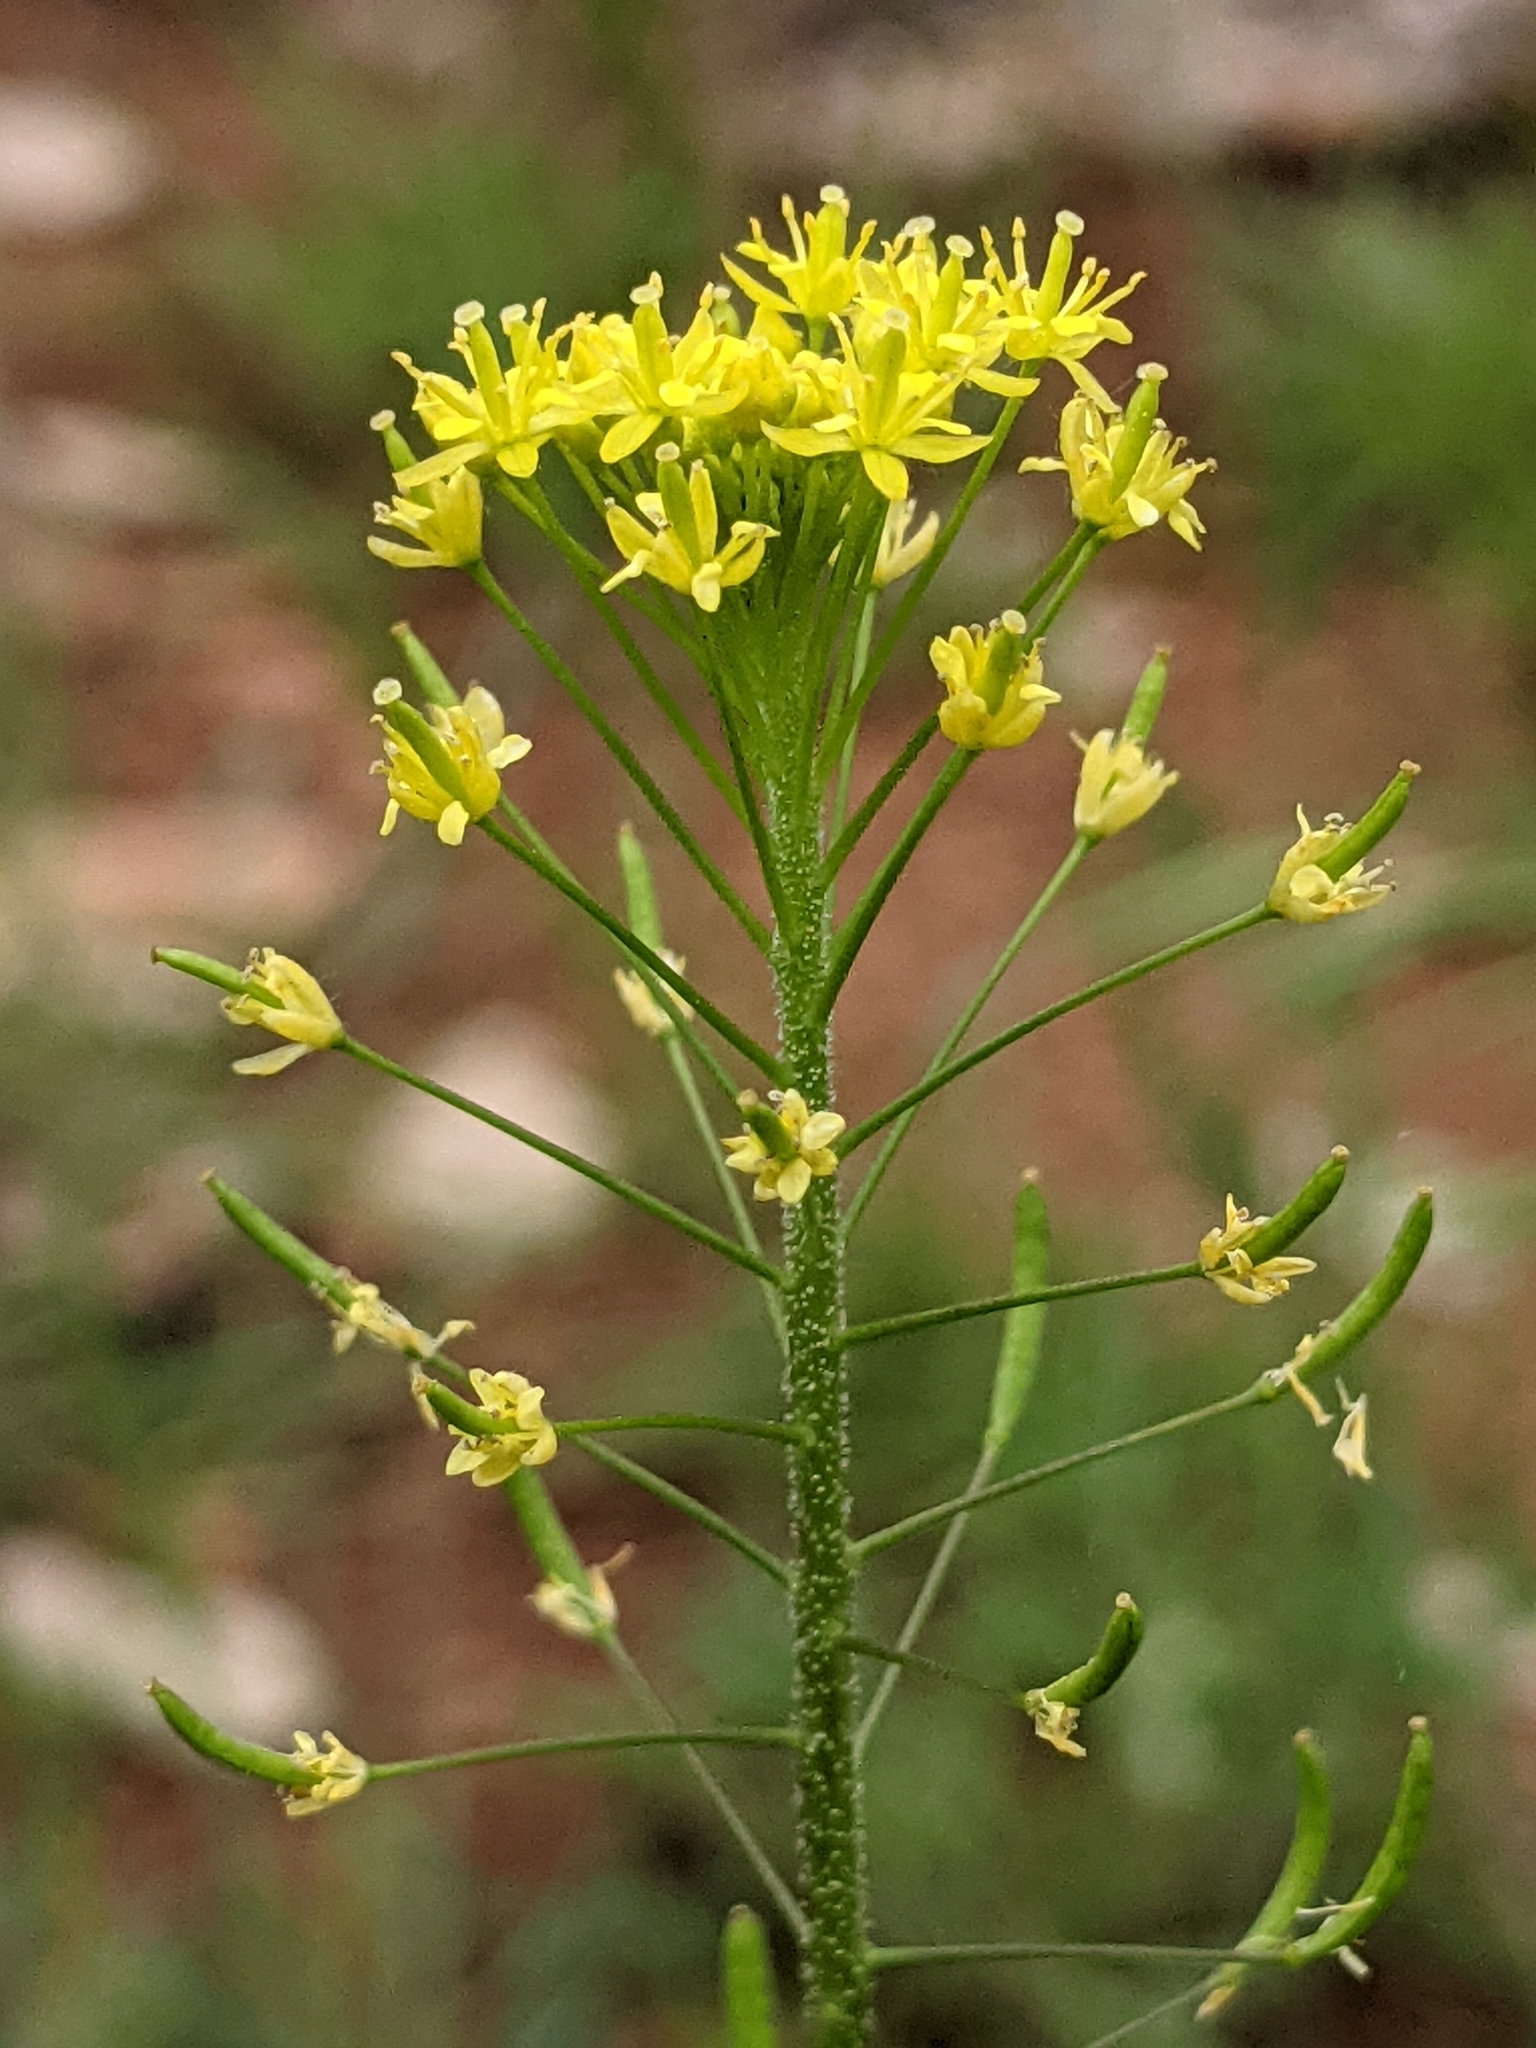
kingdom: Plantae
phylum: Tracheophyta
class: Magnoliopsida
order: Brassicales
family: Brassicaceae
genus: Descurainia
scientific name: Descurainia pinnata
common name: Western tansy mustard
